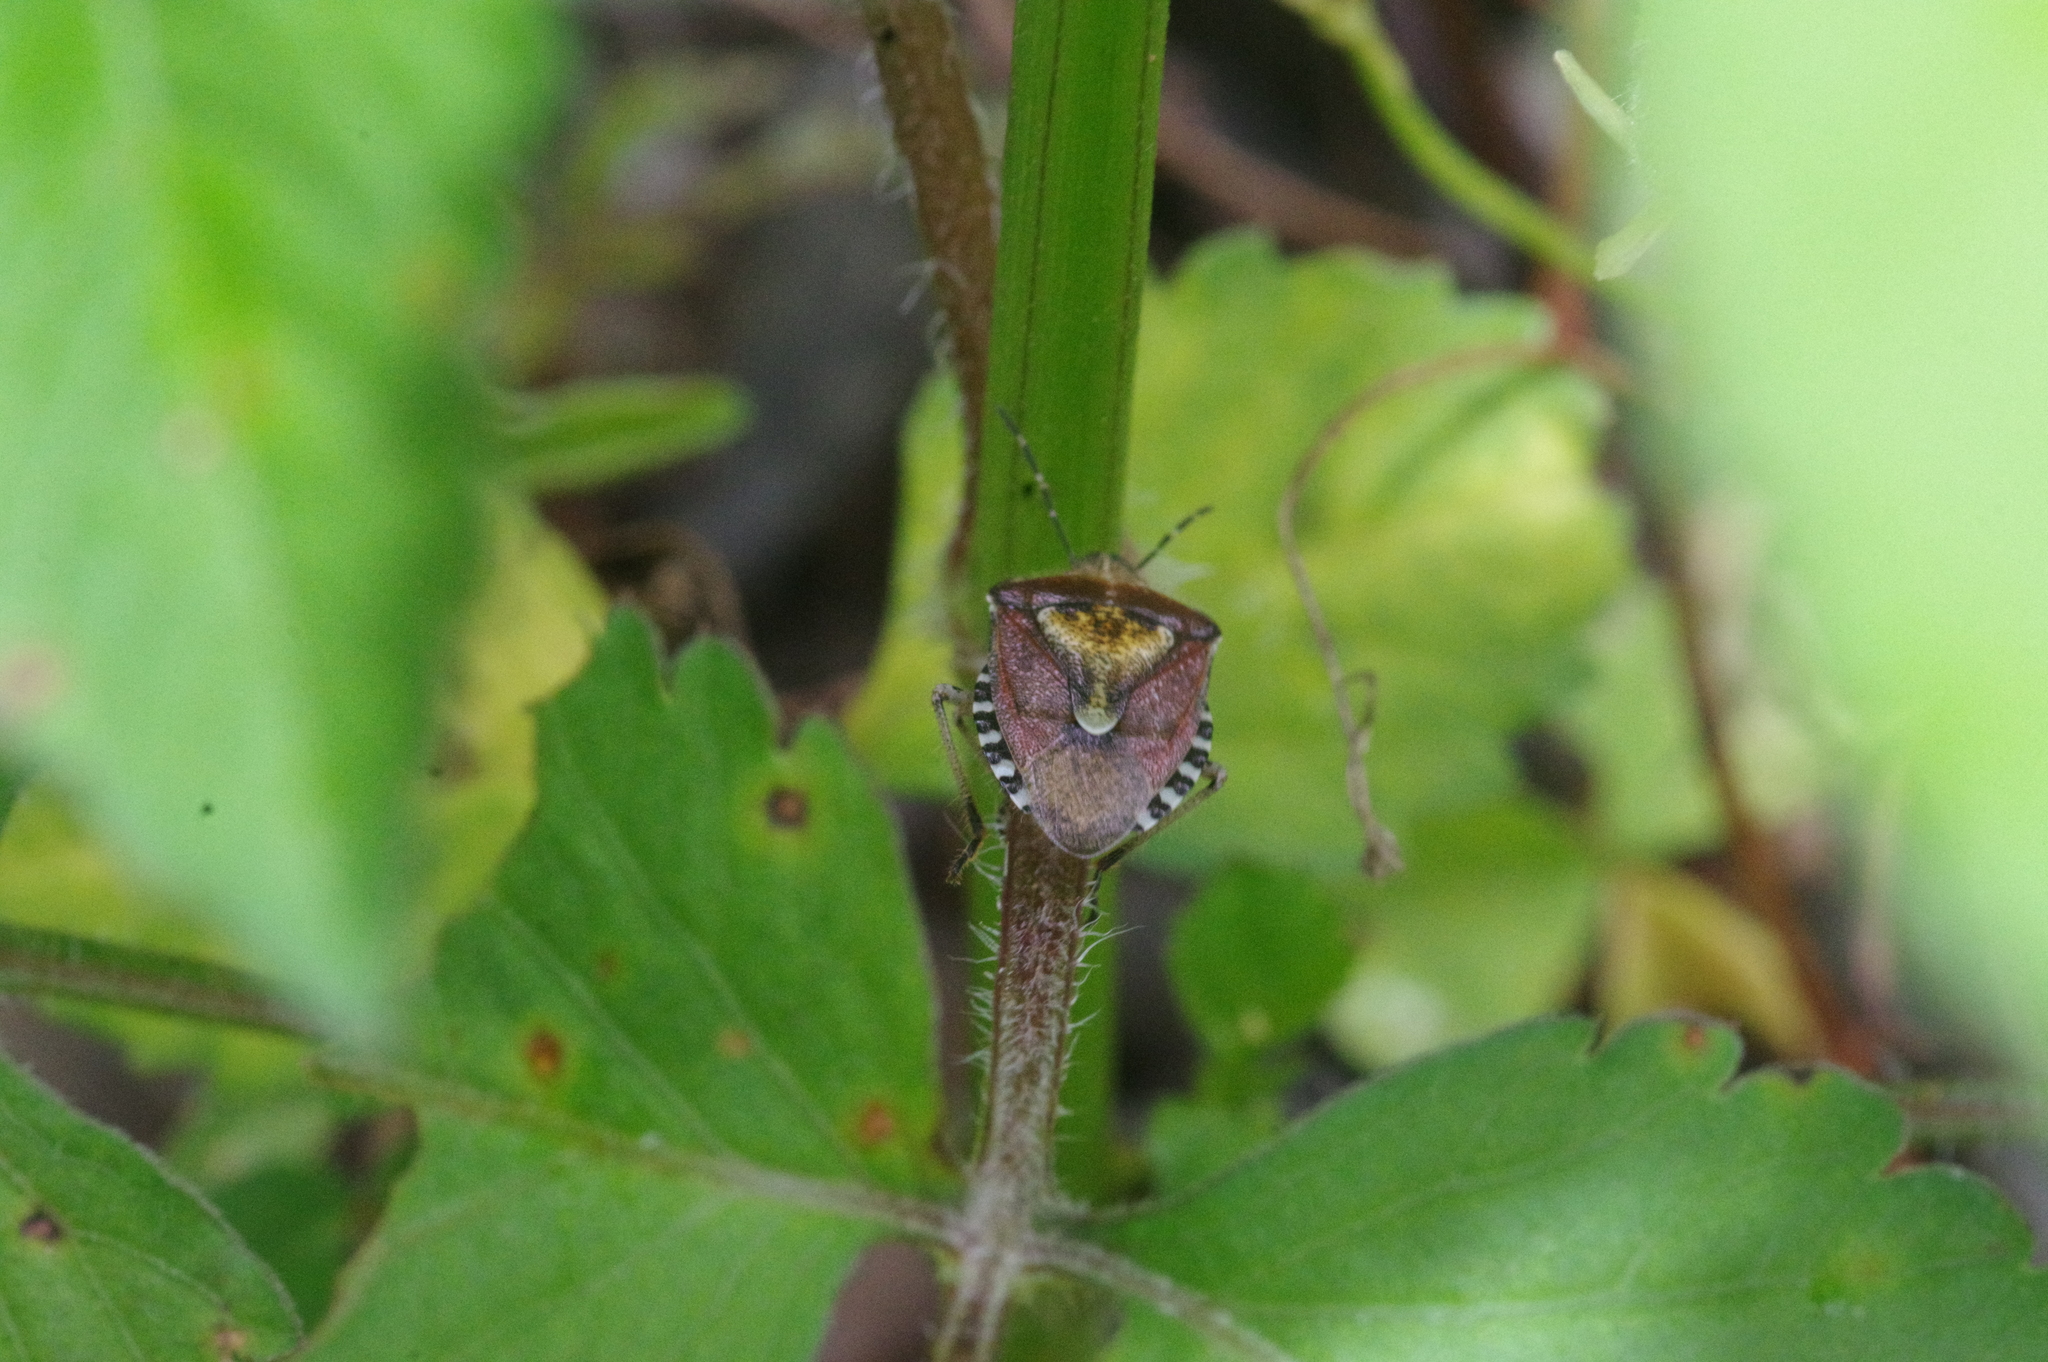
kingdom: Animalia
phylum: Arthropoda
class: Insecta
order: Hemiptera
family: Pentatomidae
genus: Dolycoris
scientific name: Dolycoris baccarum
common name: Sloe bug
